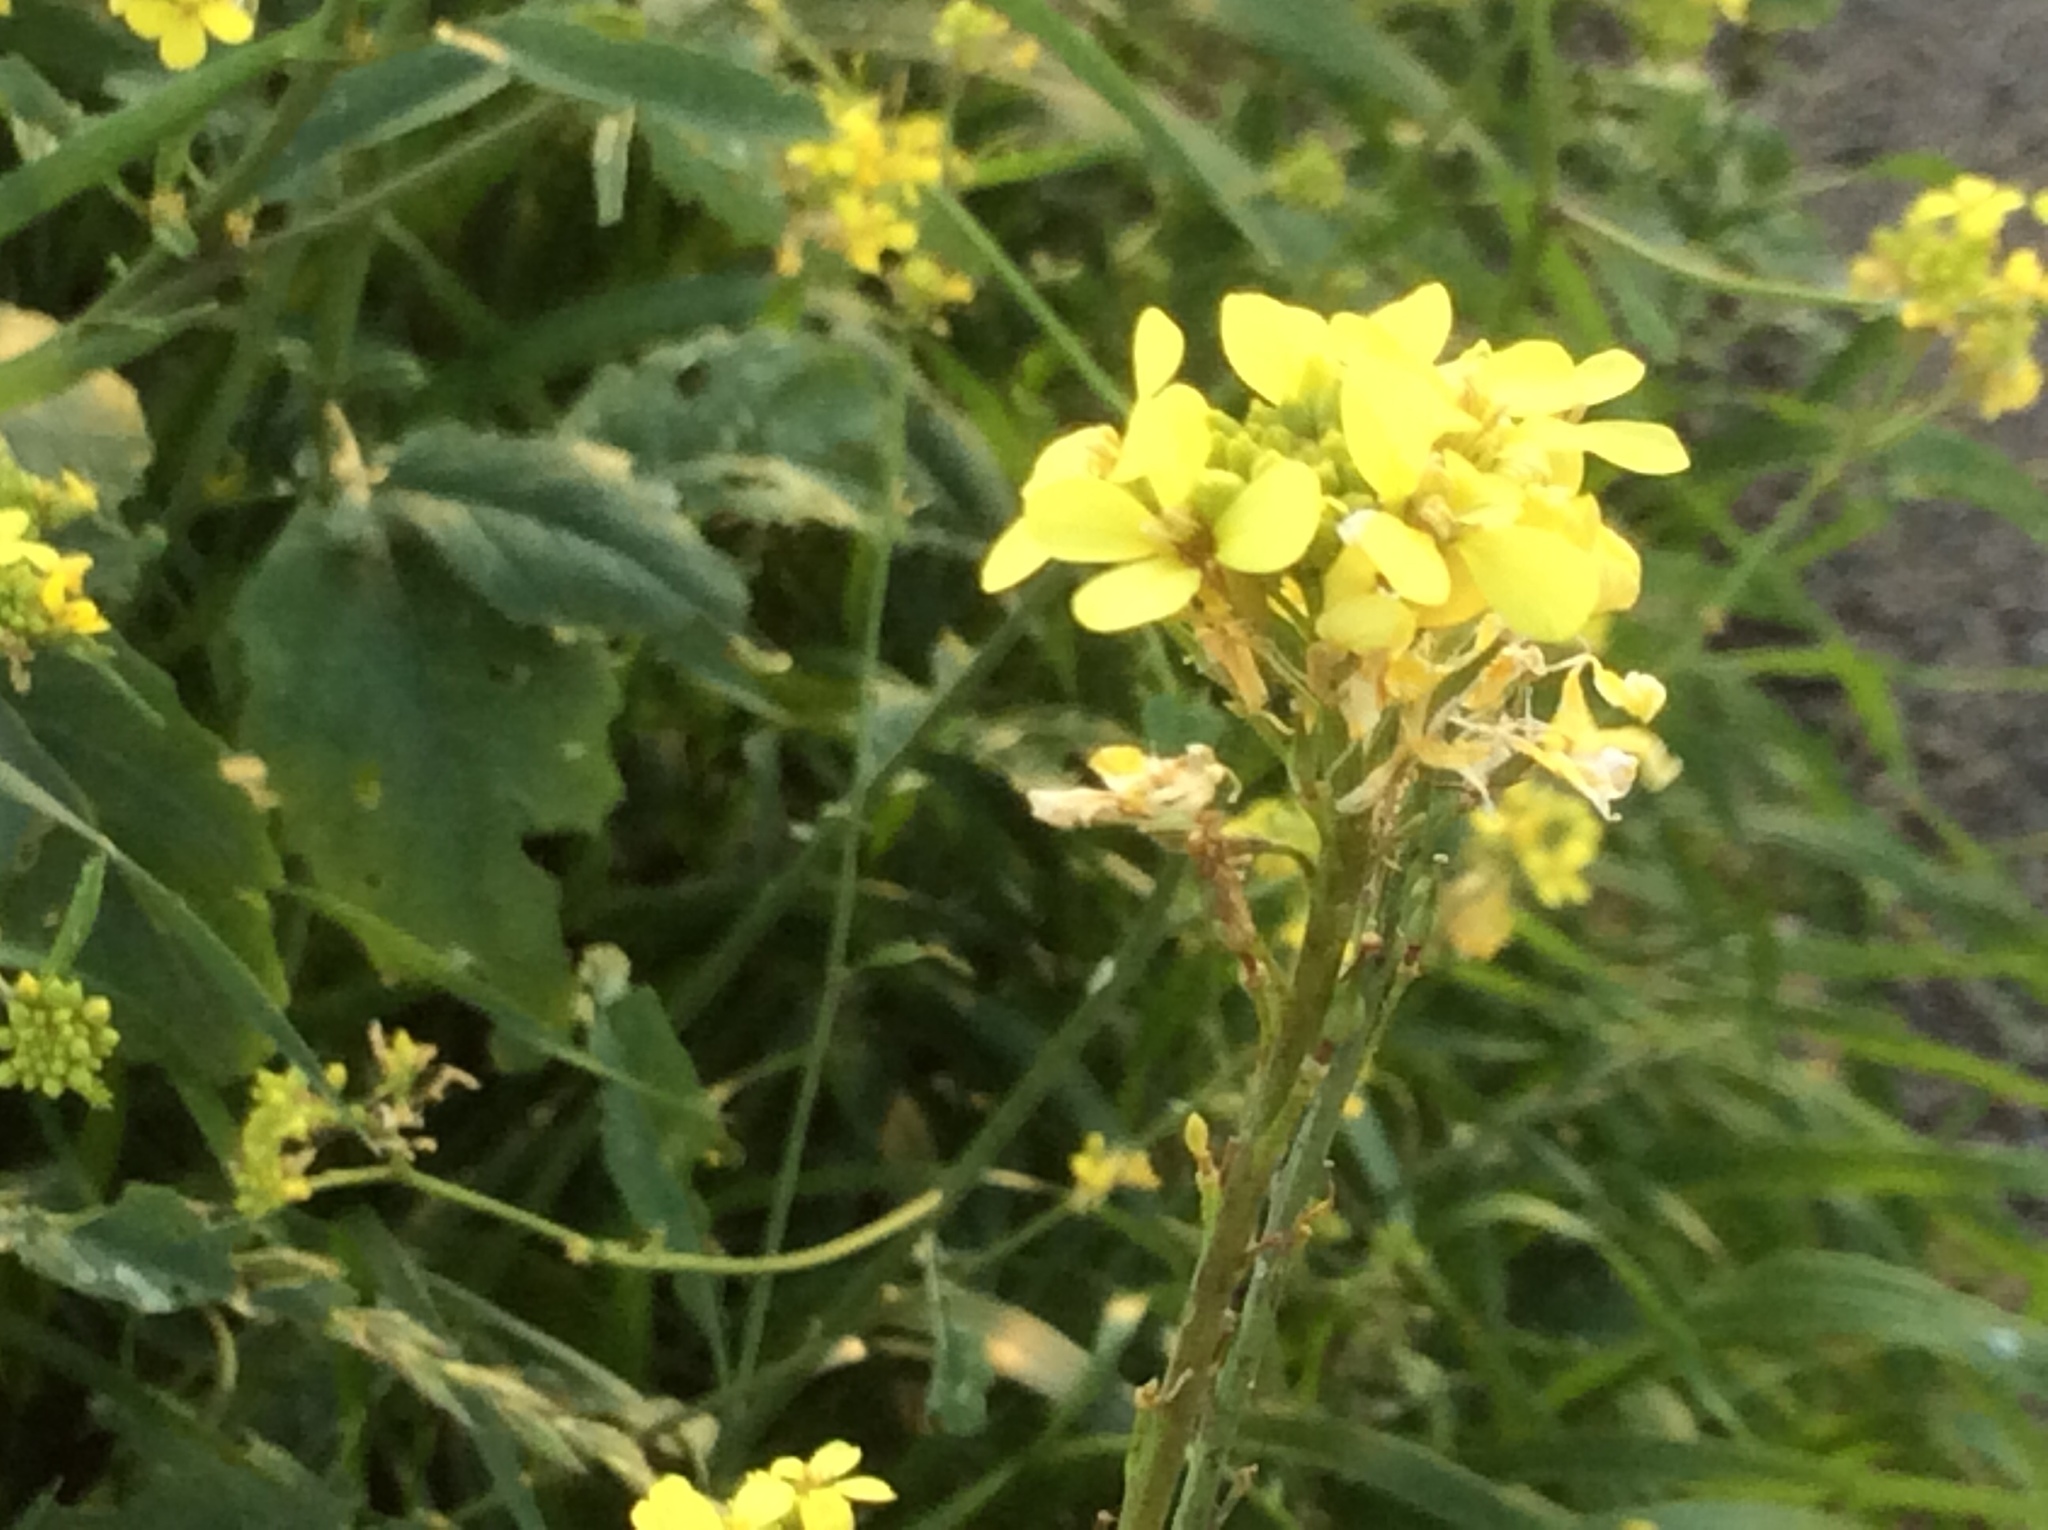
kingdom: Plantae
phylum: Tracheophyta
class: Magnoliopsida
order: Brassicales
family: Brassicaceae
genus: Rapistrum
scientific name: Rapistrum rugosum
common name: Annual bastardcabbage
